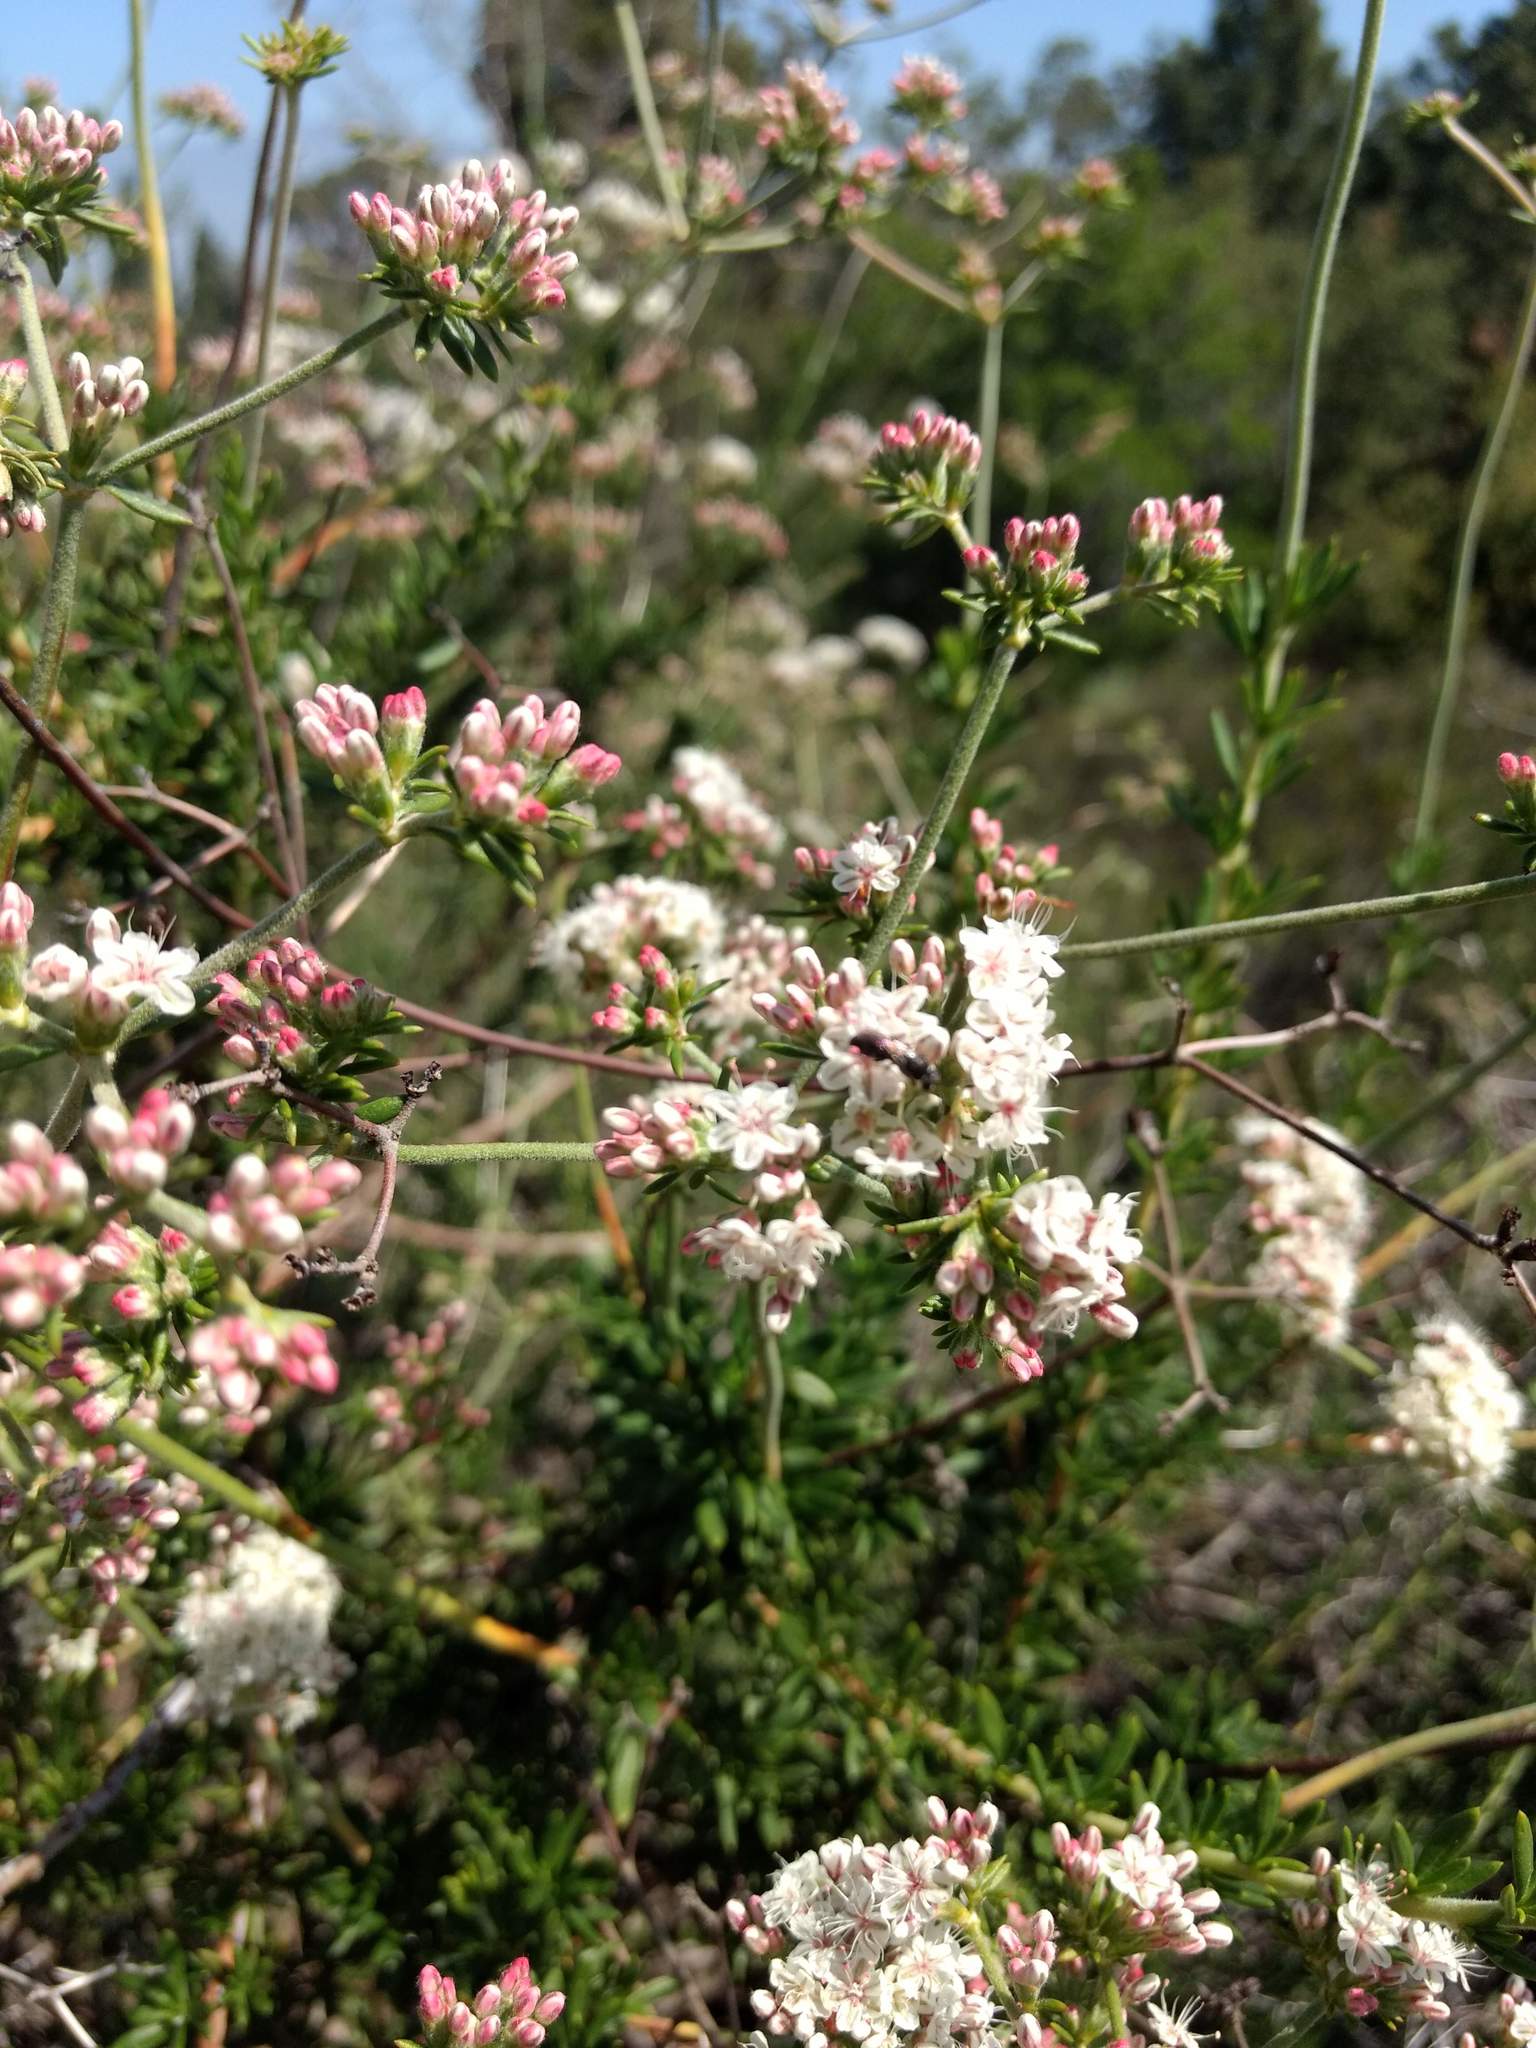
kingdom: Plantae
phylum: Tracheophyta
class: Magnoliopsida
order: Caryophyllales
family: Polygonaceae
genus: Eriogonum
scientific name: Eriogonum fasciculatum
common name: California wild buckwheat
